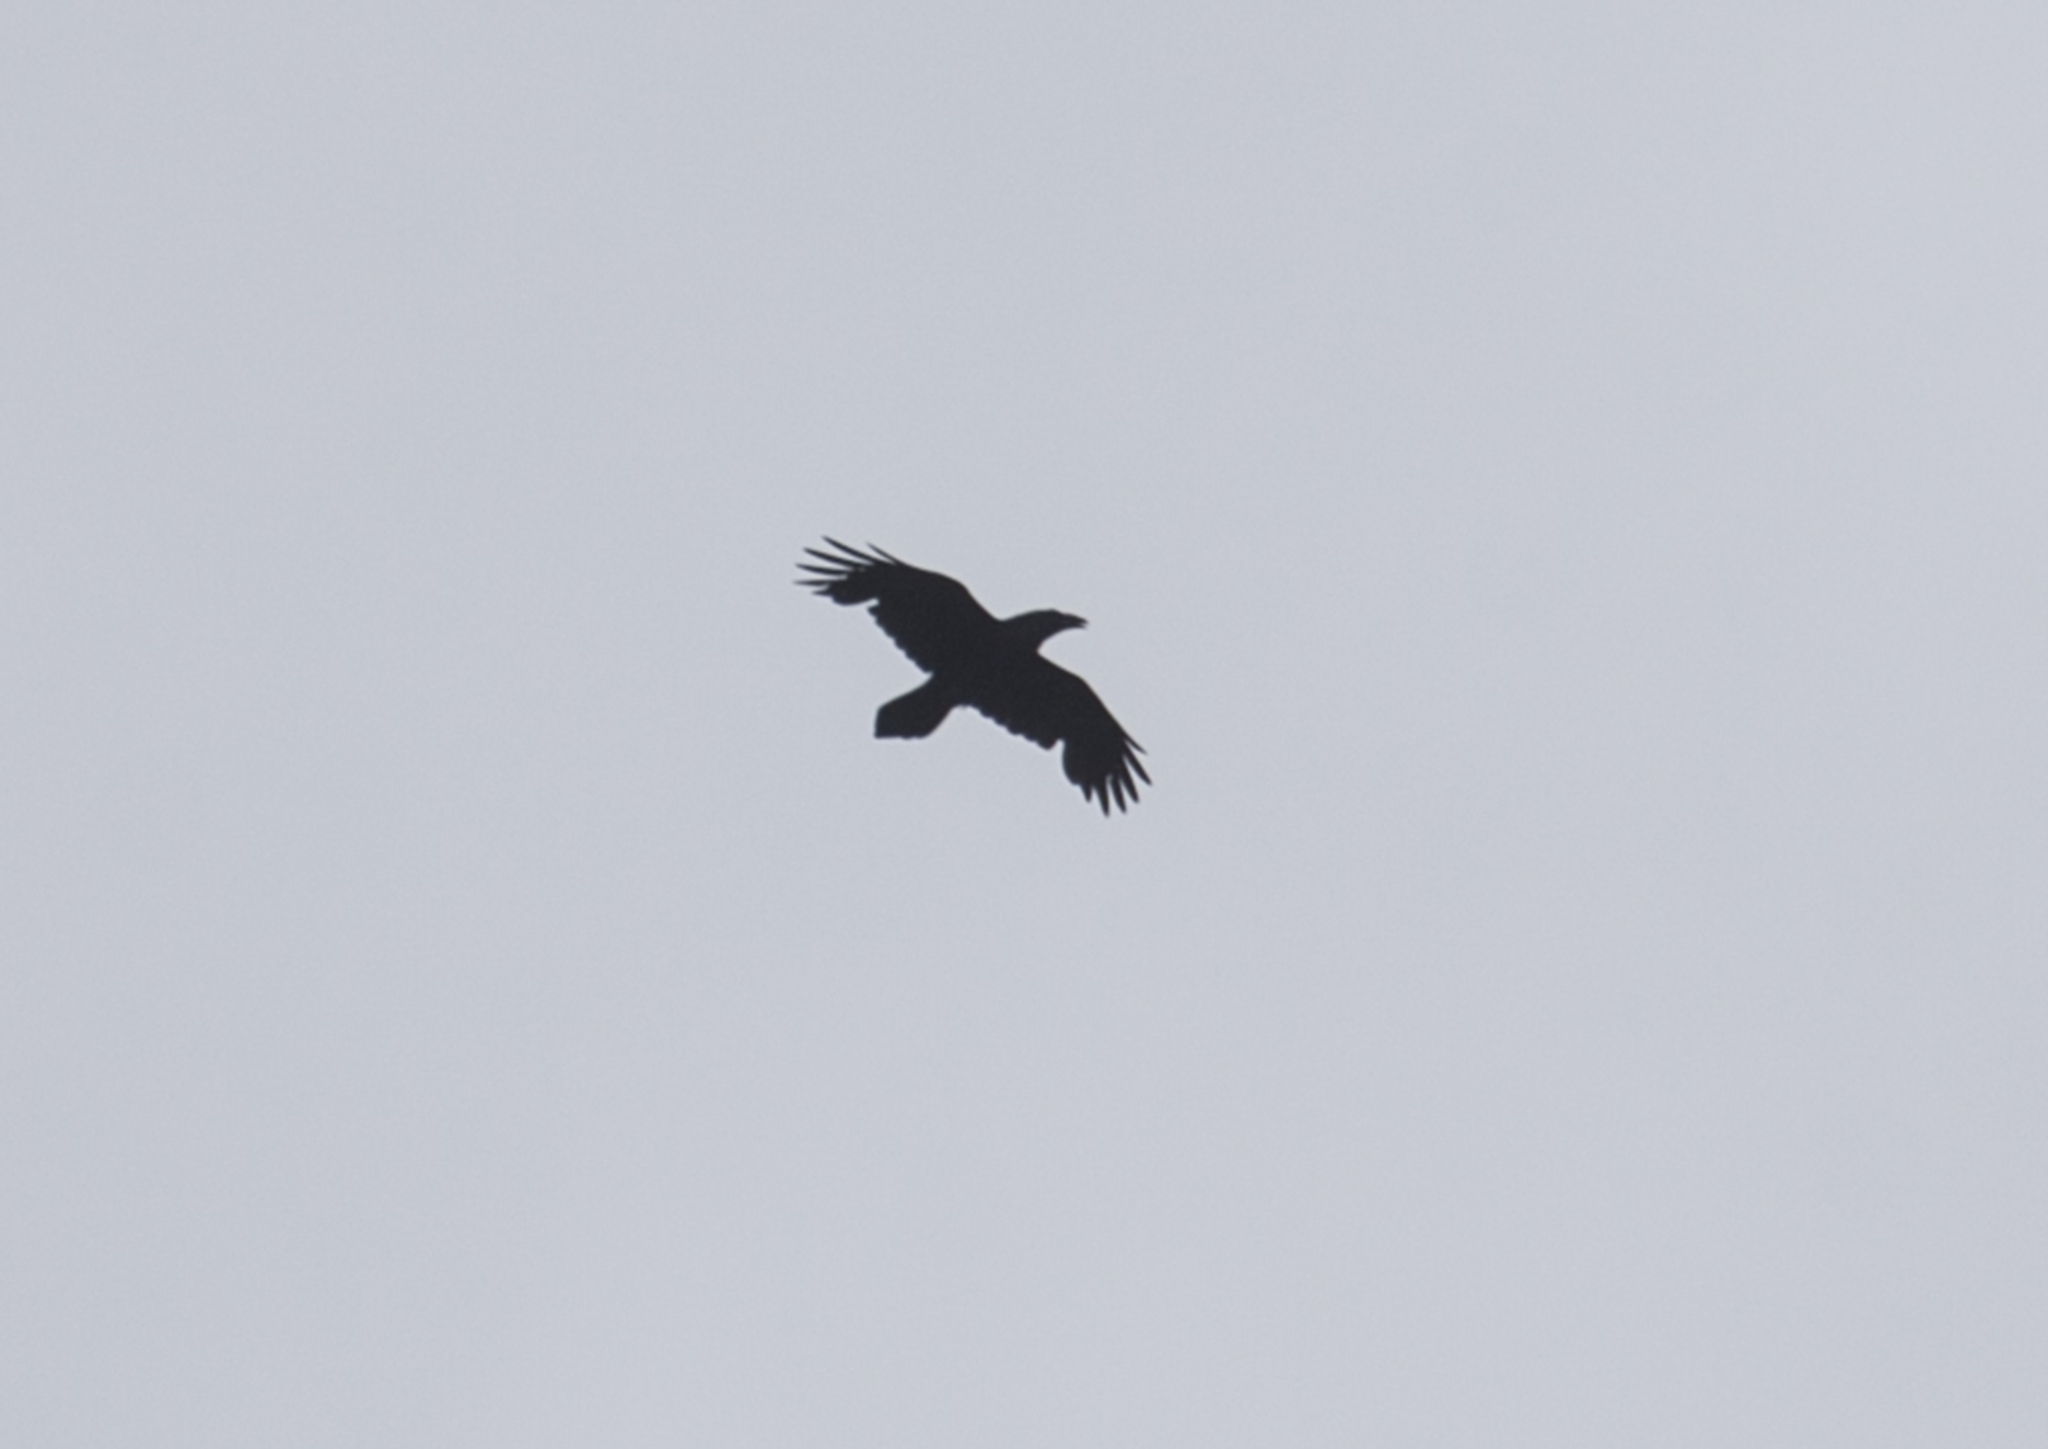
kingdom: Animalia
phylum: Chordata
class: Aves
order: Passeriformes
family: Corvidae
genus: Corvus
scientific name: Corvus corax
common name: Common raven
